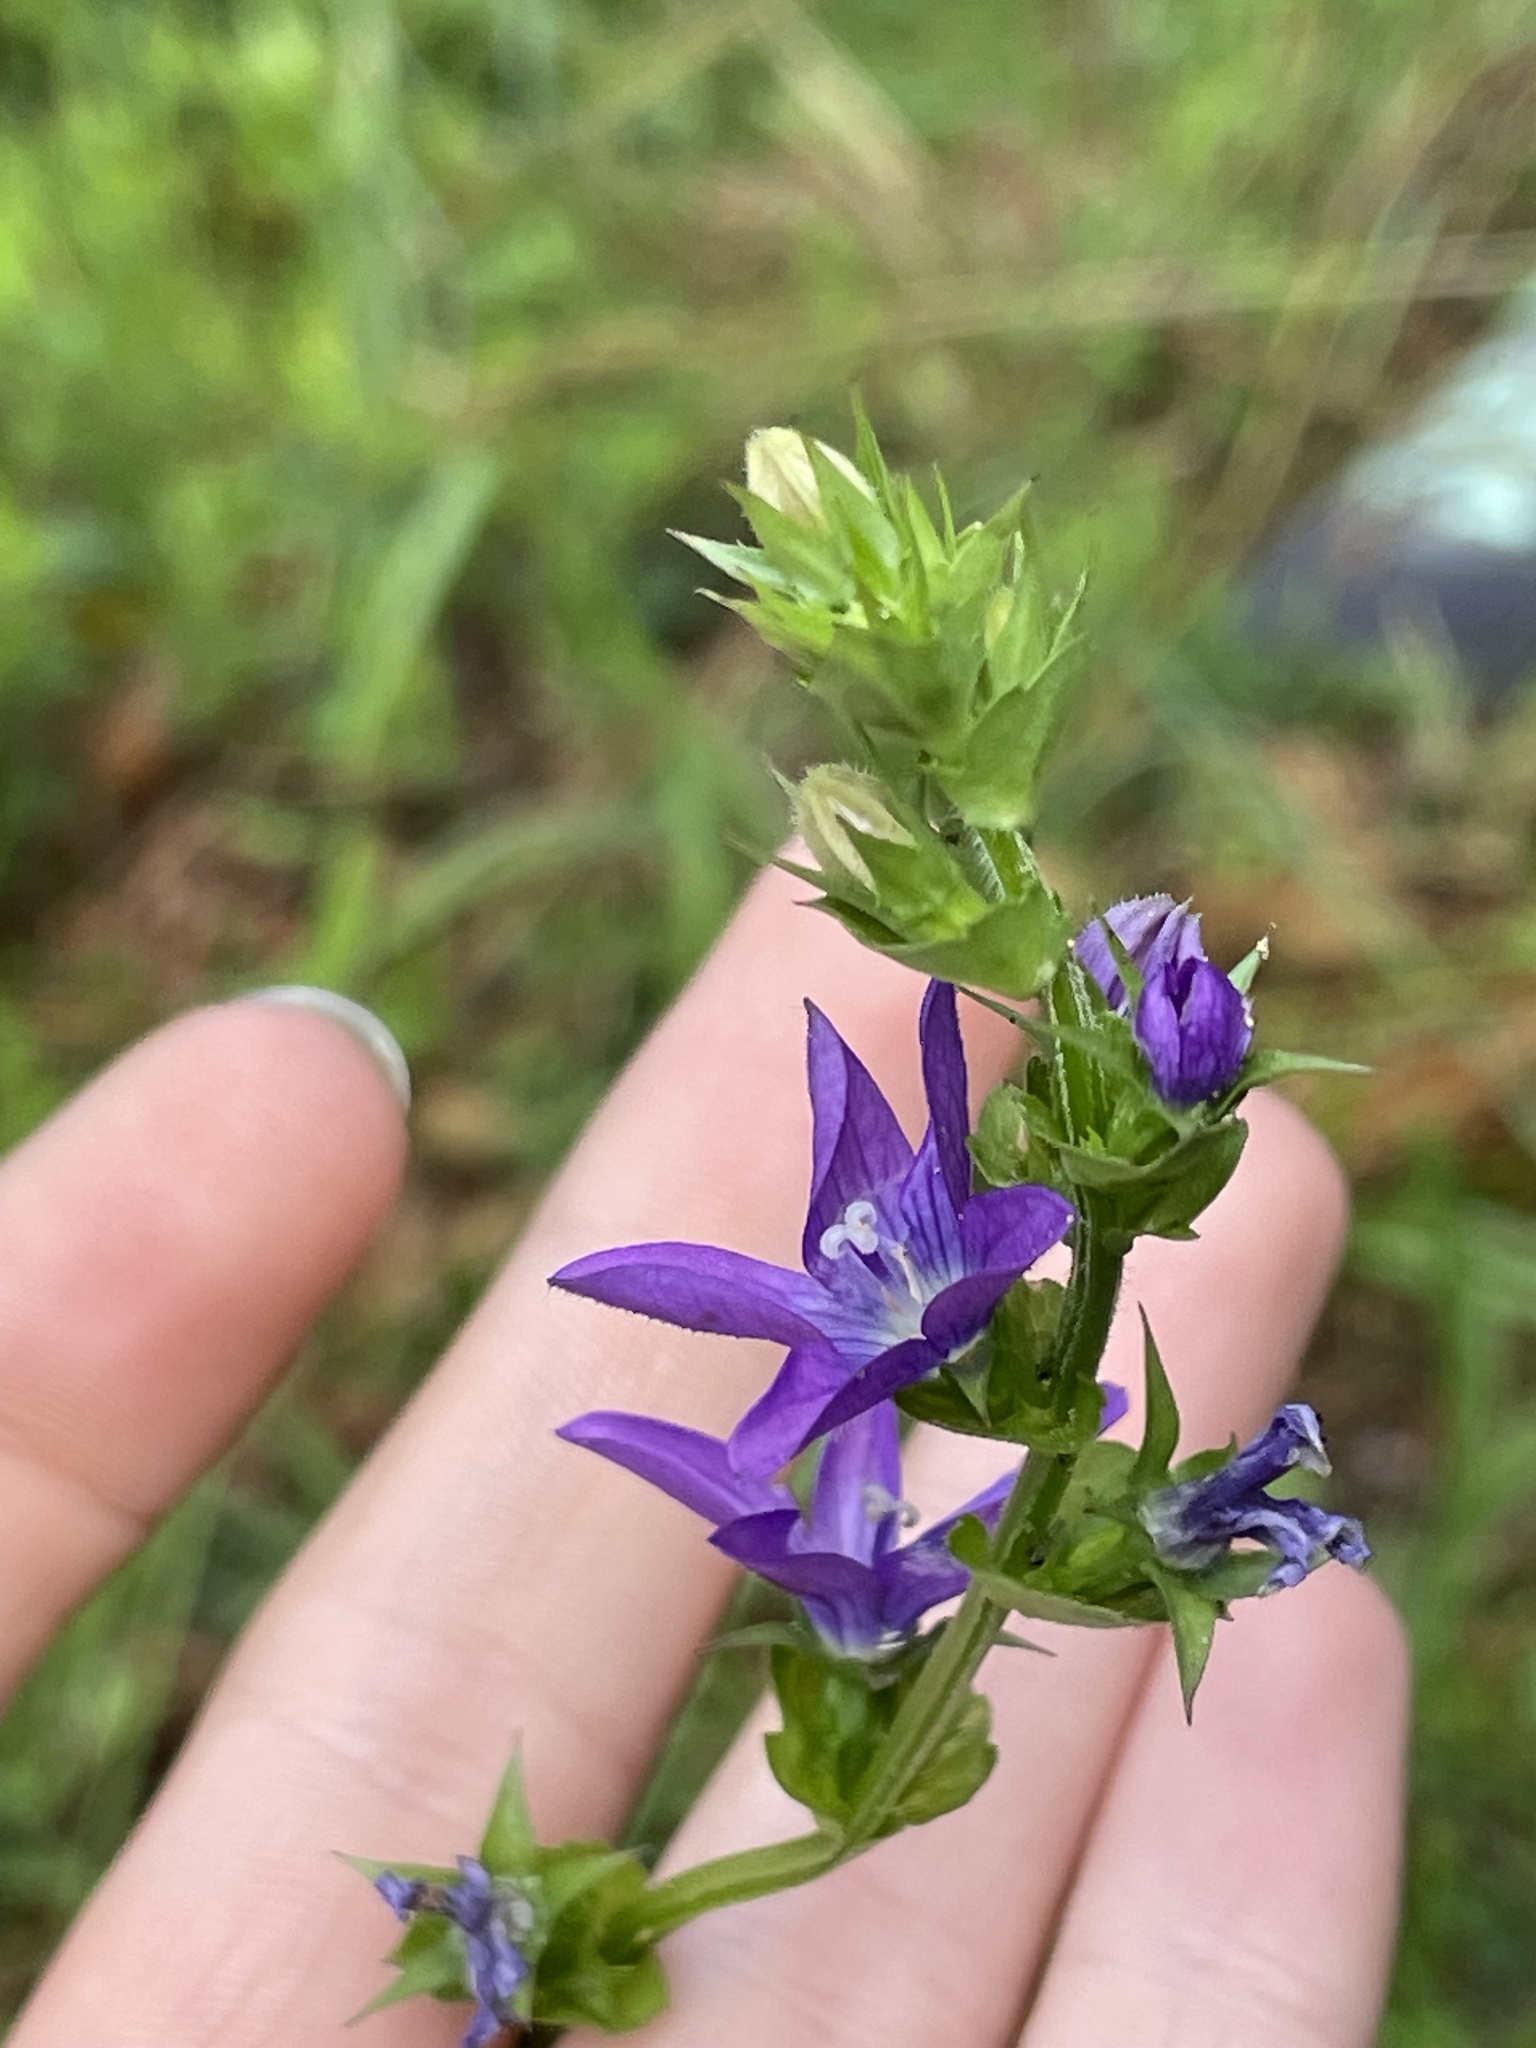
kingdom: Plantae
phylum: Tracheophyta
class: Magnoliopsida
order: Asterales
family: Campanulaceae
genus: Triodanis
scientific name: Triodanis perfoliata
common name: Clasping venus' looking-glass
